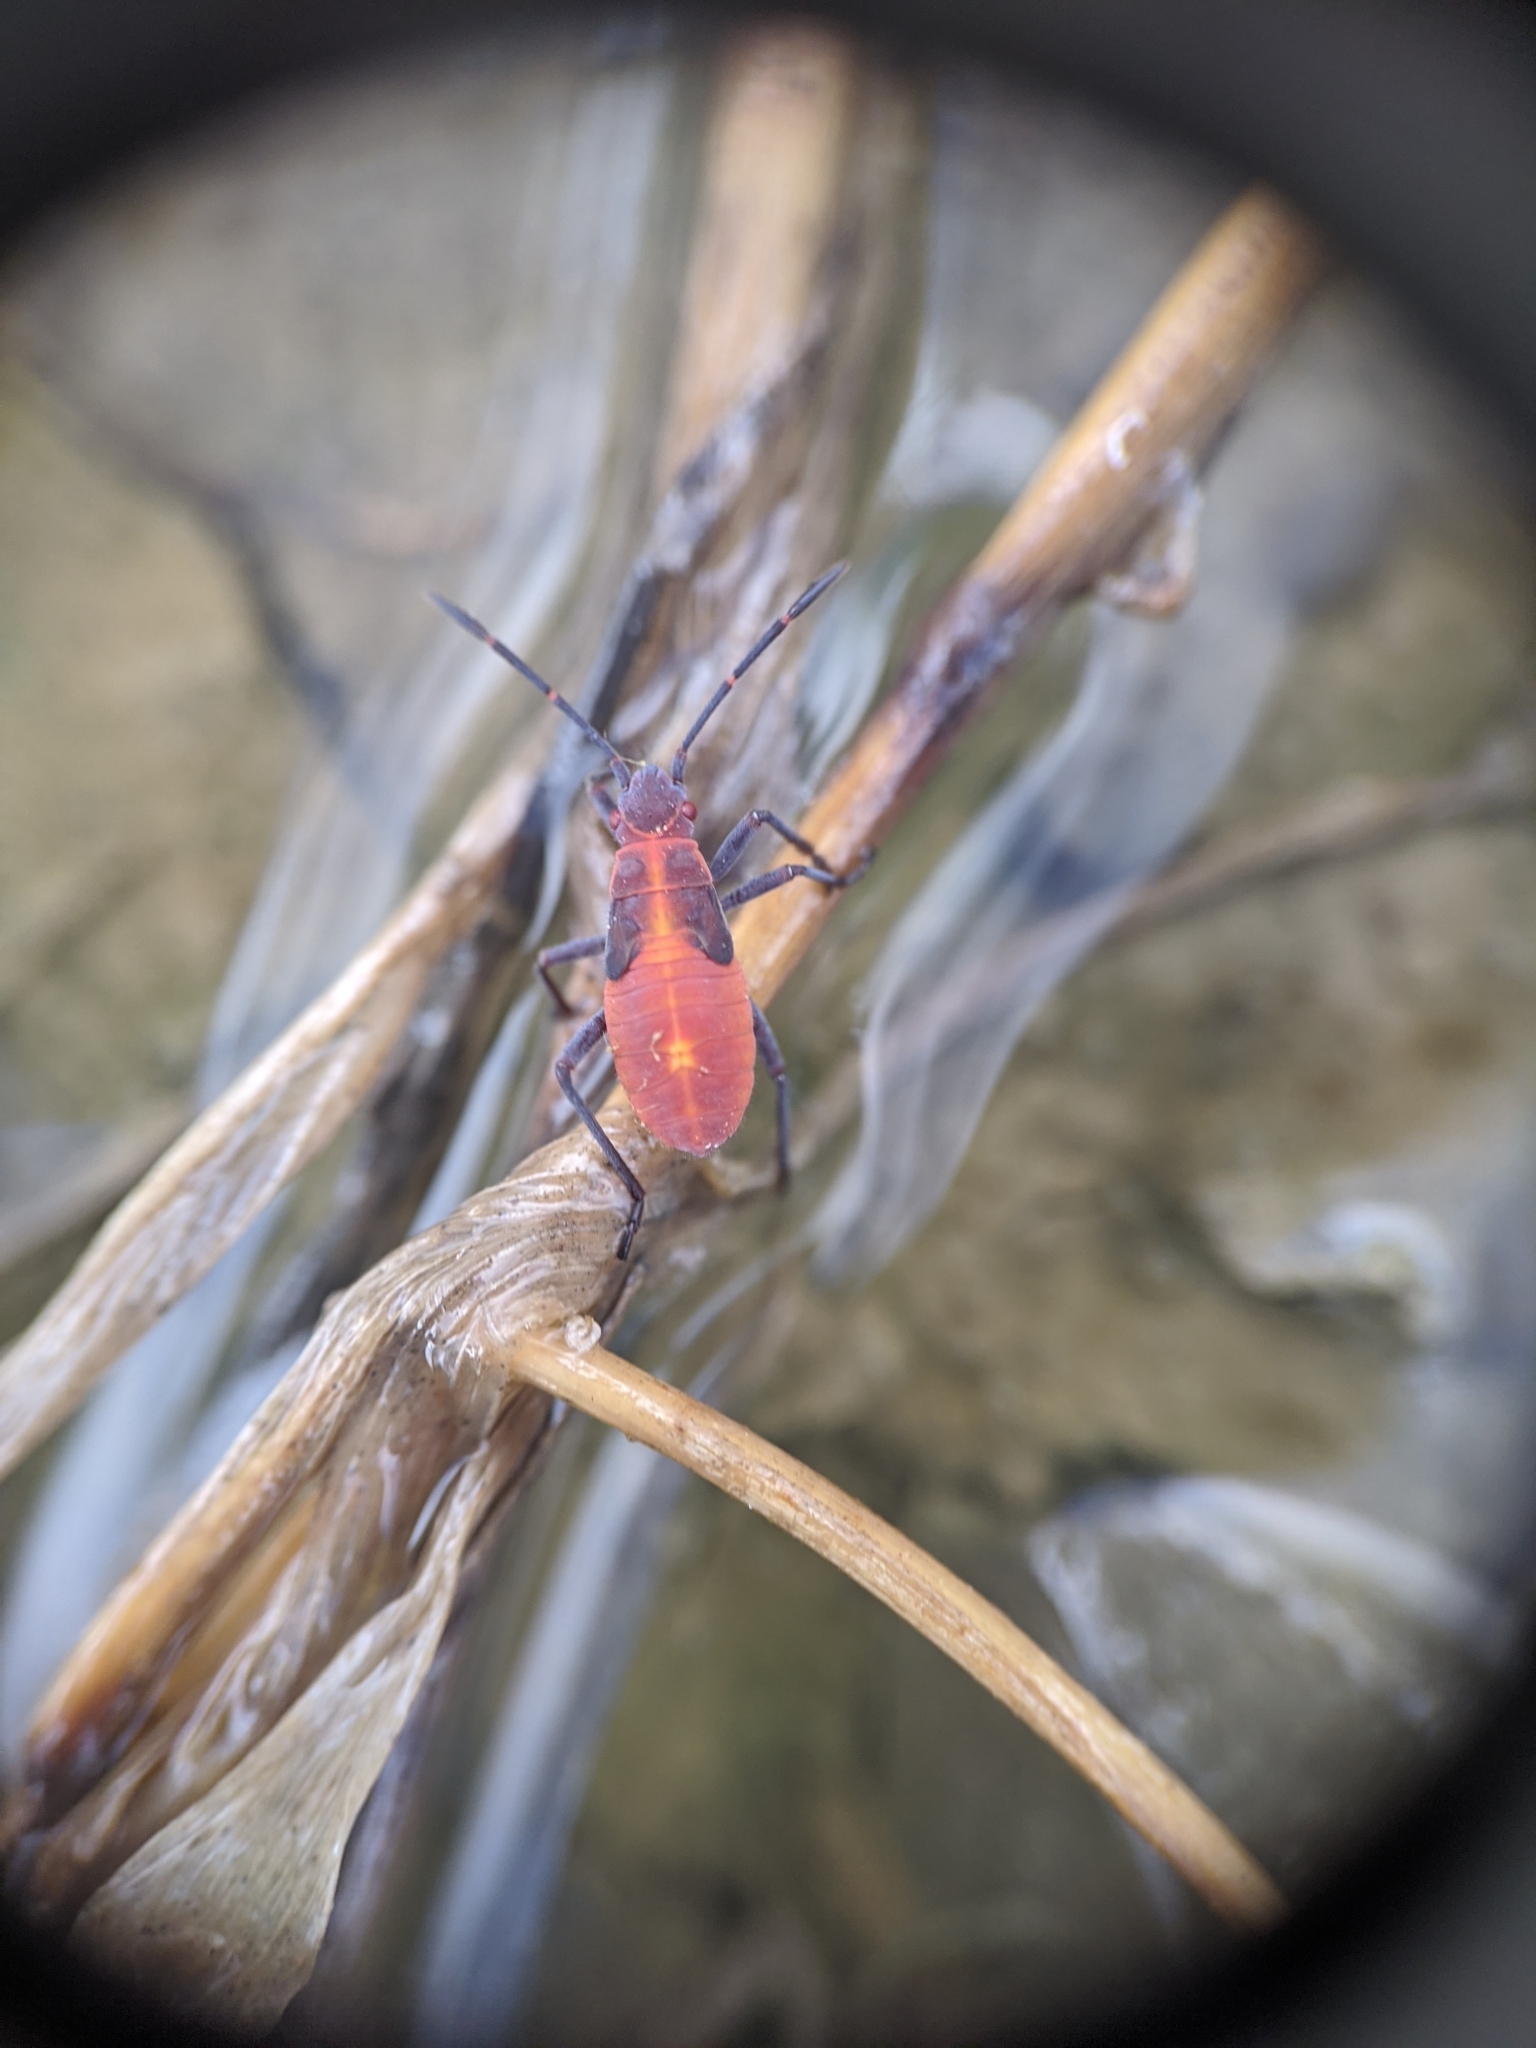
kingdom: Animalia
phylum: Arthropoda
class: Insecta
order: Hemiptera
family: Rhopalidae
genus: Boisea
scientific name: Boisea trivittata
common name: Boxelder bug
